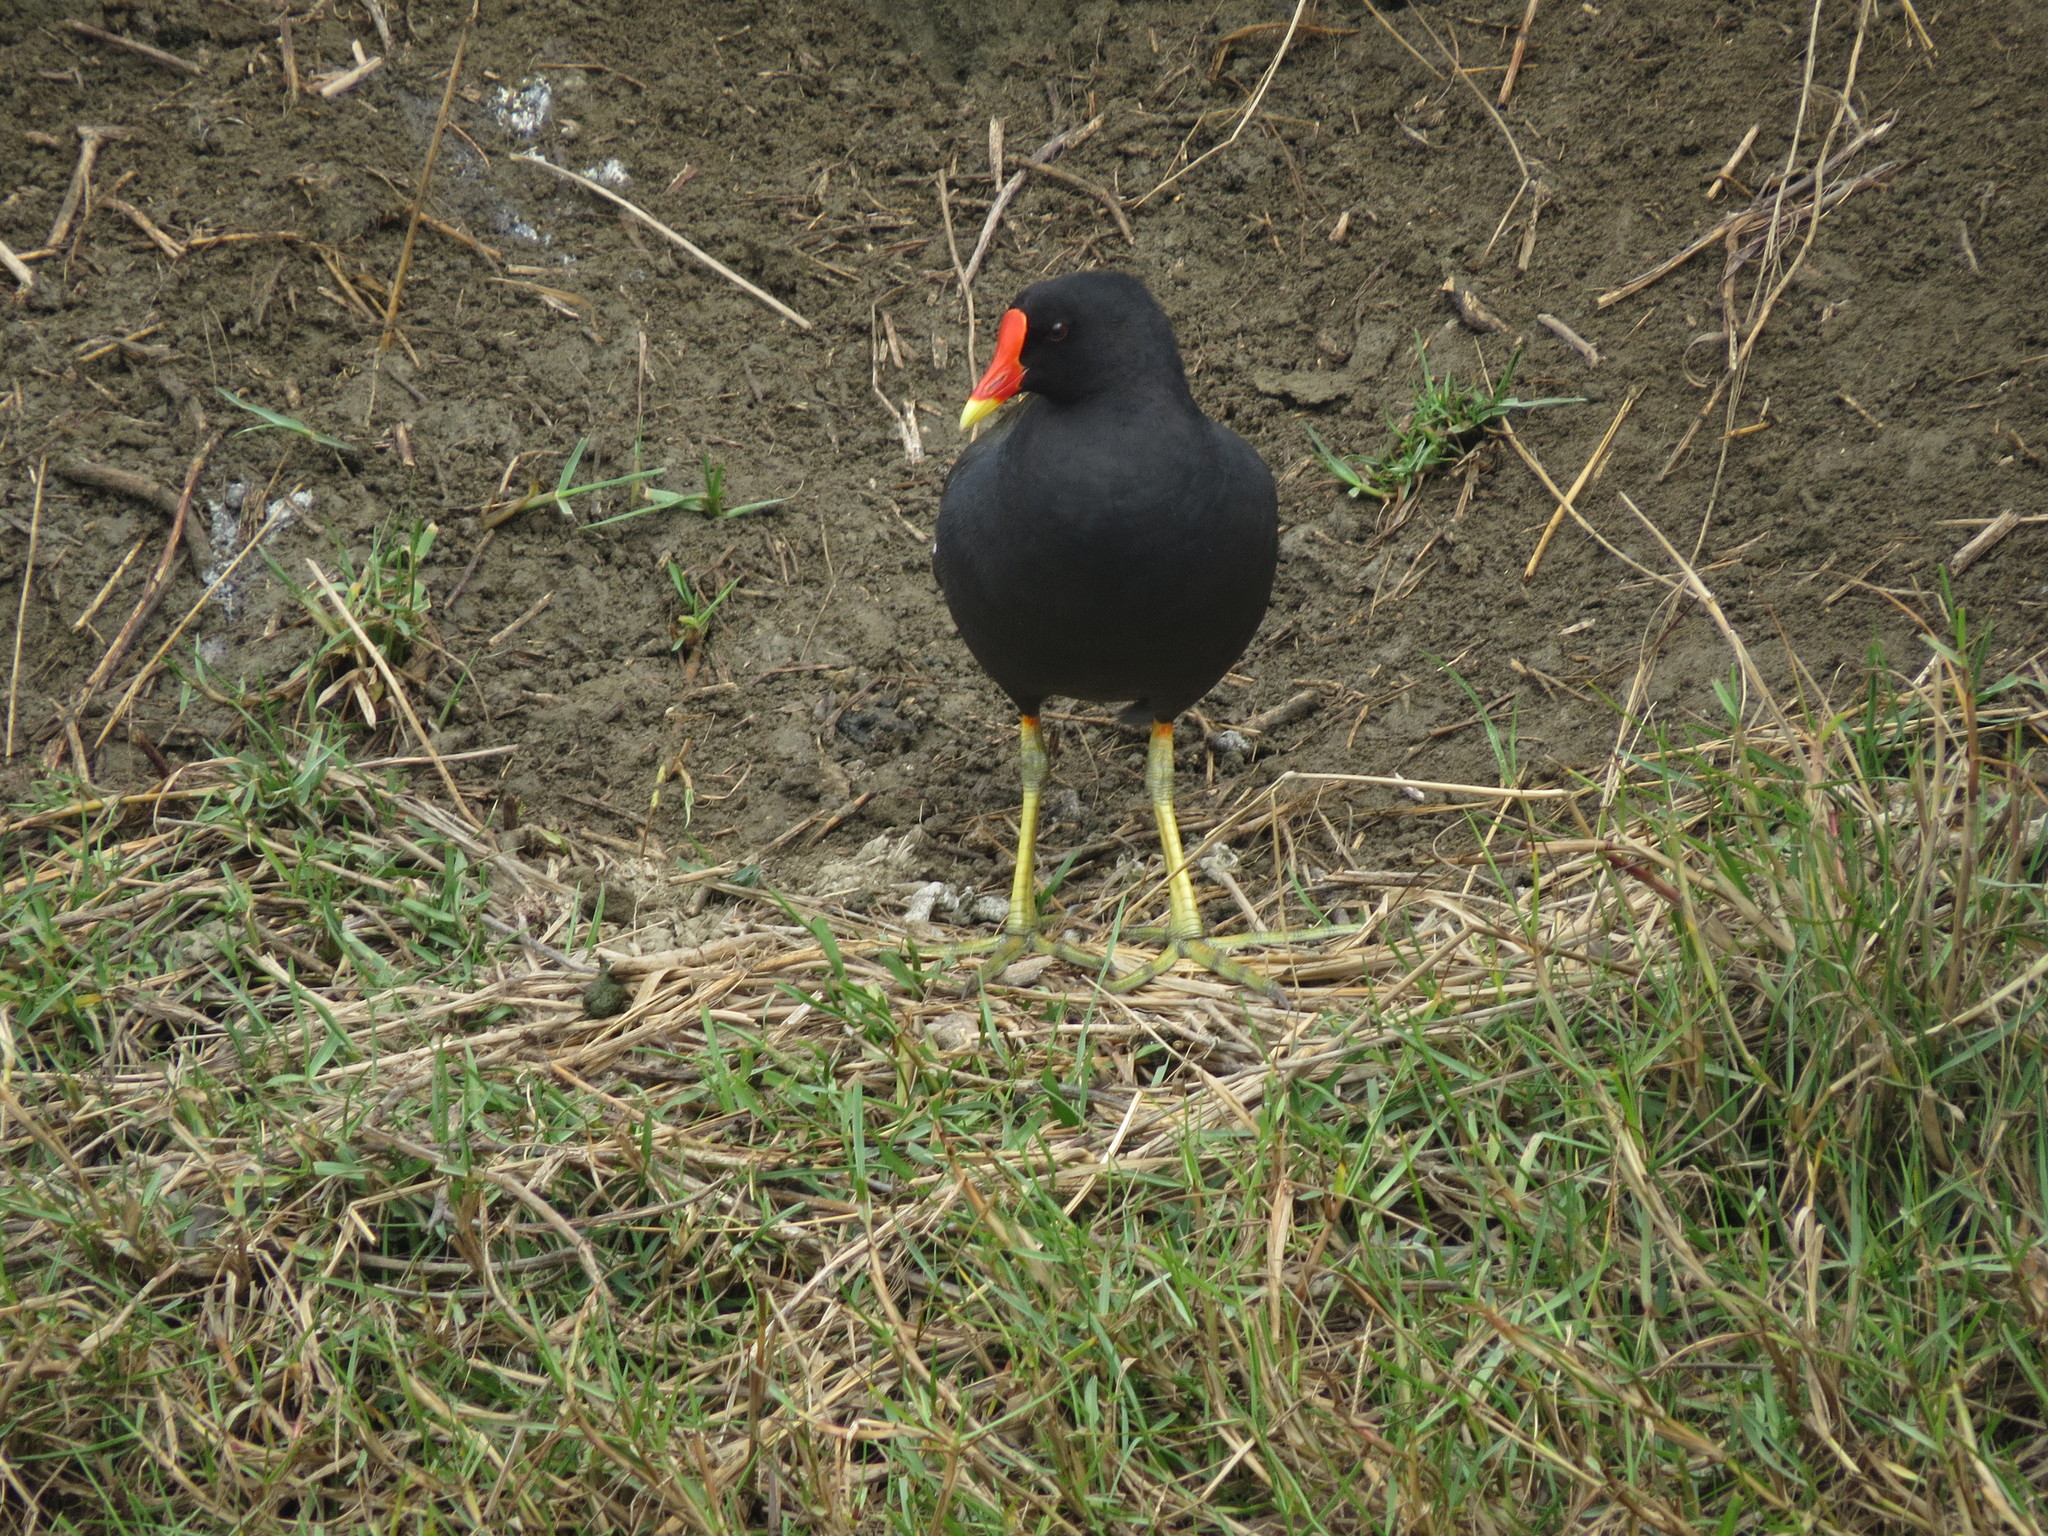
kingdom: Animalia
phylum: Chordata
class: Aves
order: Gruiformes
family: Rallidae
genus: Gallinula
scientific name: Gallinula chloropus
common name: Common moorhen
